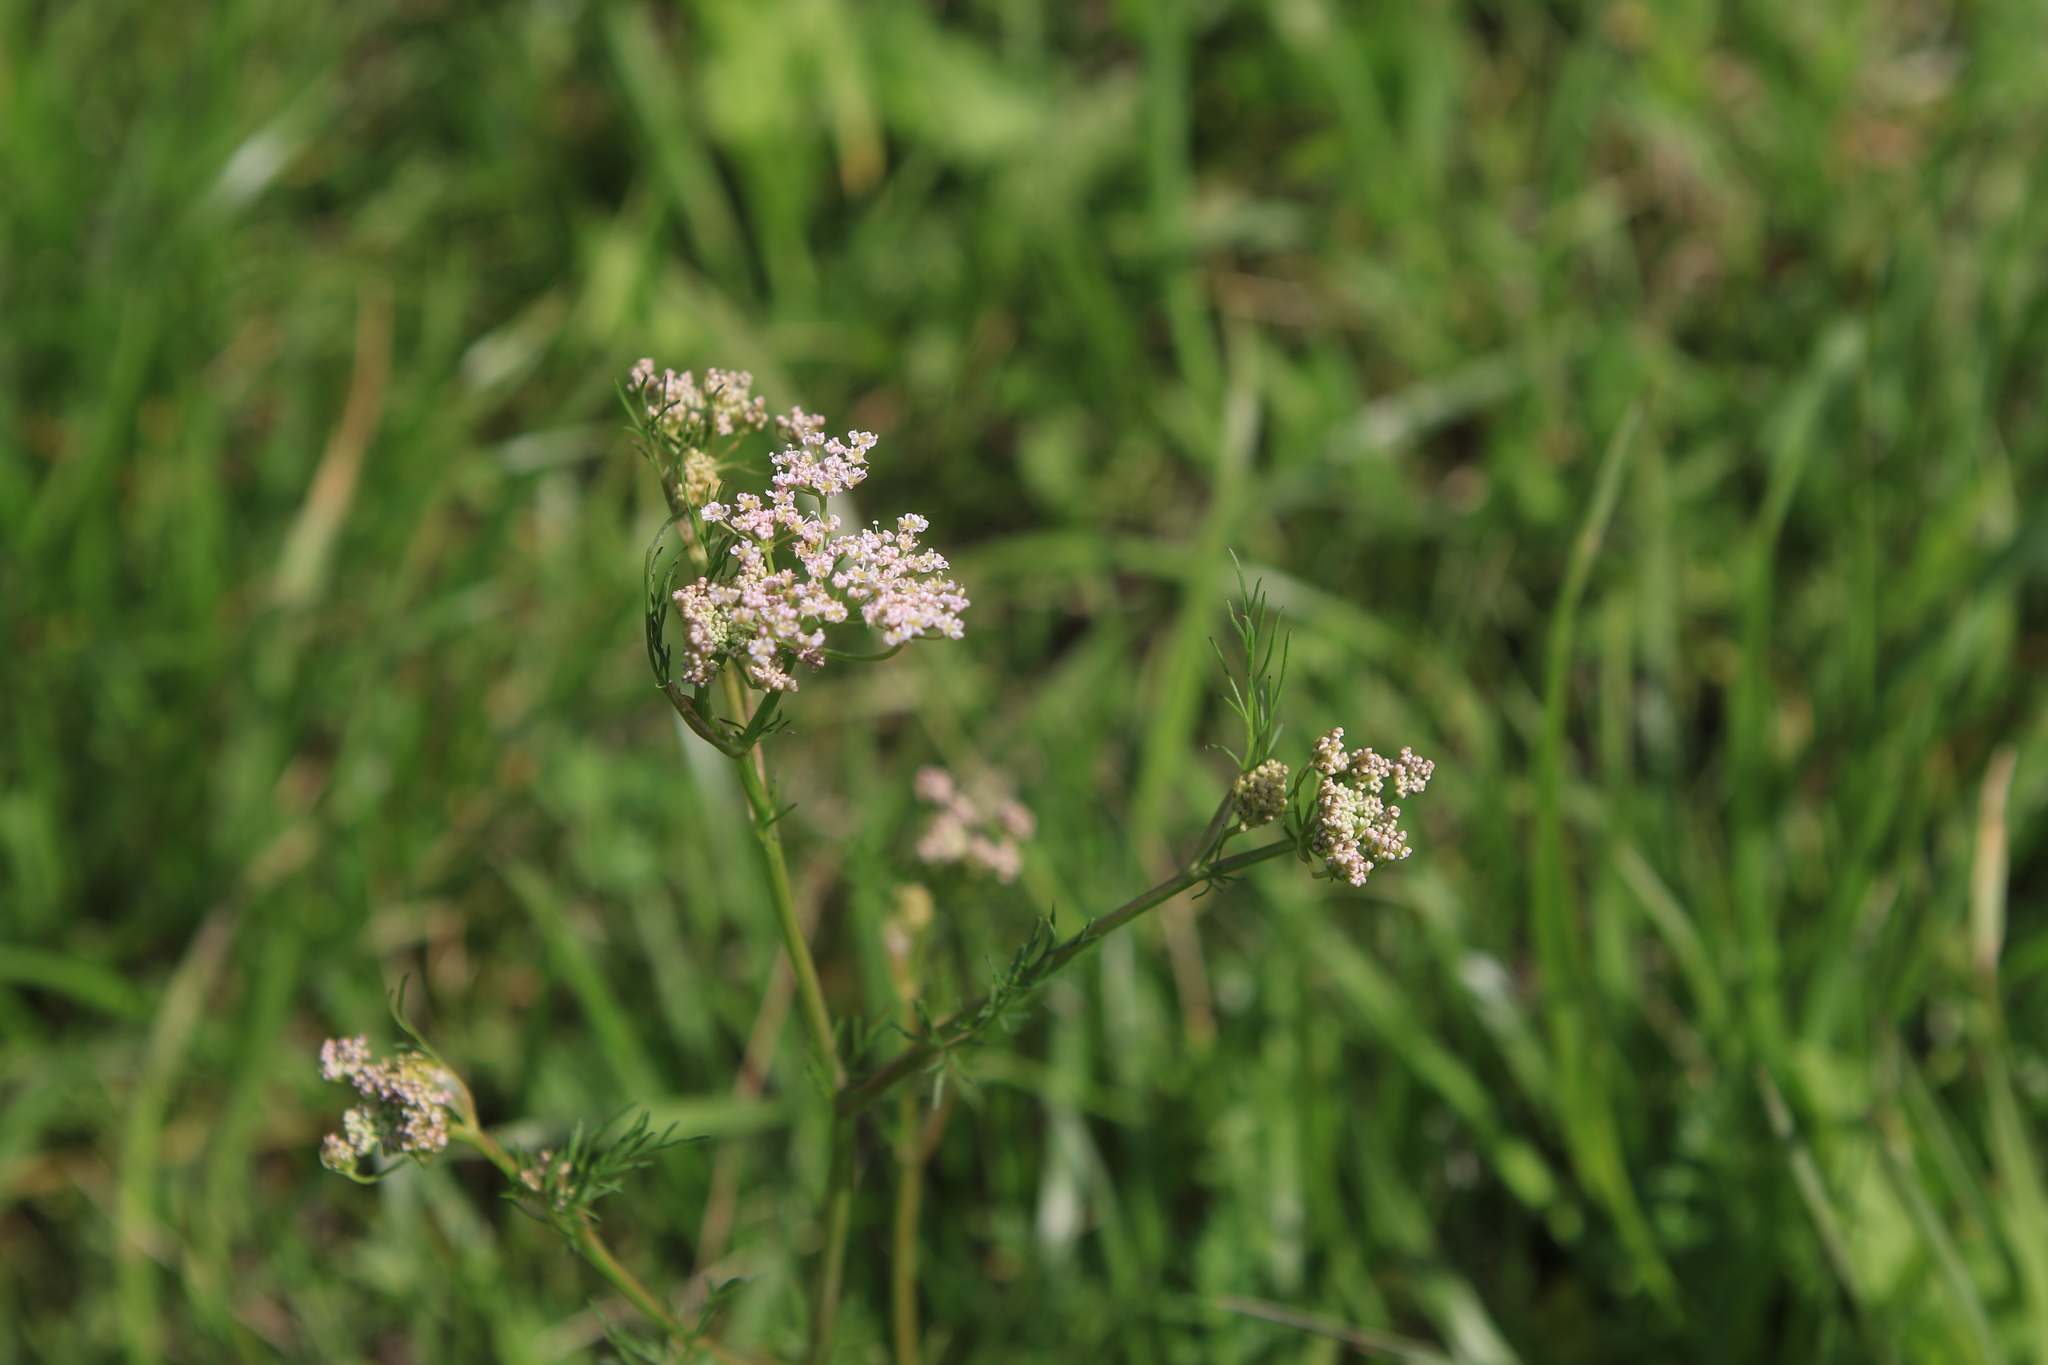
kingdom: Plantae
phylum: Tracheophyta
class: Magnoliopsida
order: Apiales
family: Apiaceae
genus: Carum
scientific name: Carum carvi
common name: Caraway
